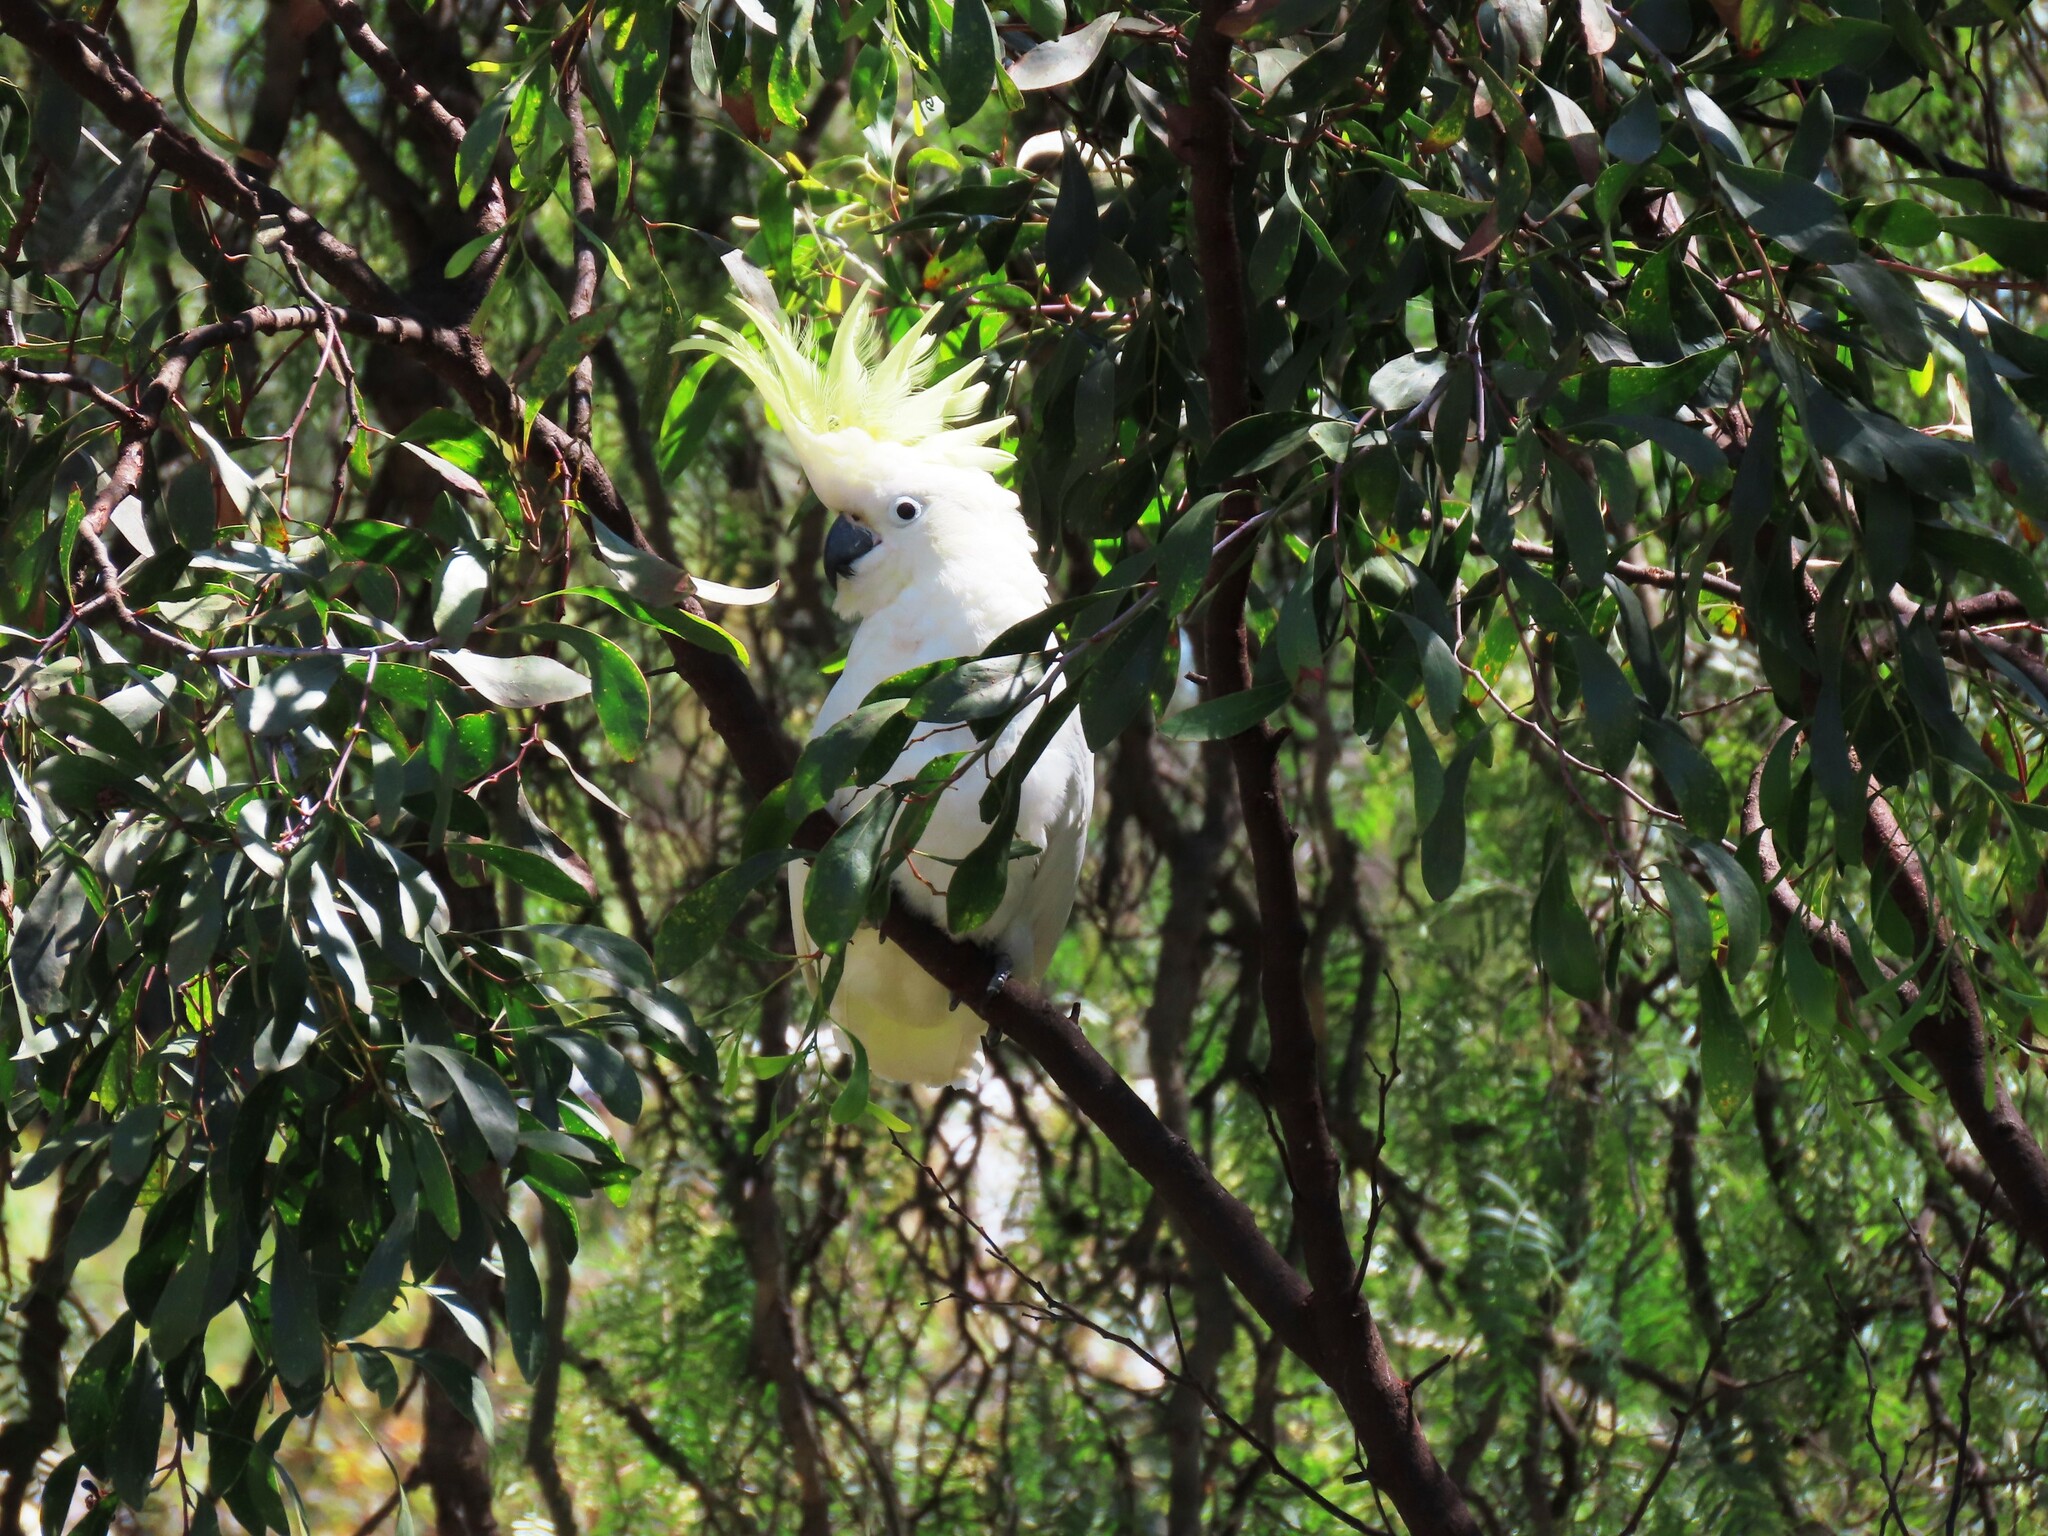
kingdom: Animalia
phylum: Chordata
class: Aves
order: Psittaciformes
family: Psittacidae
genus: Cacatua
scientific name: Cacatua galerita
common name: Sulphur-crested cockatoo
